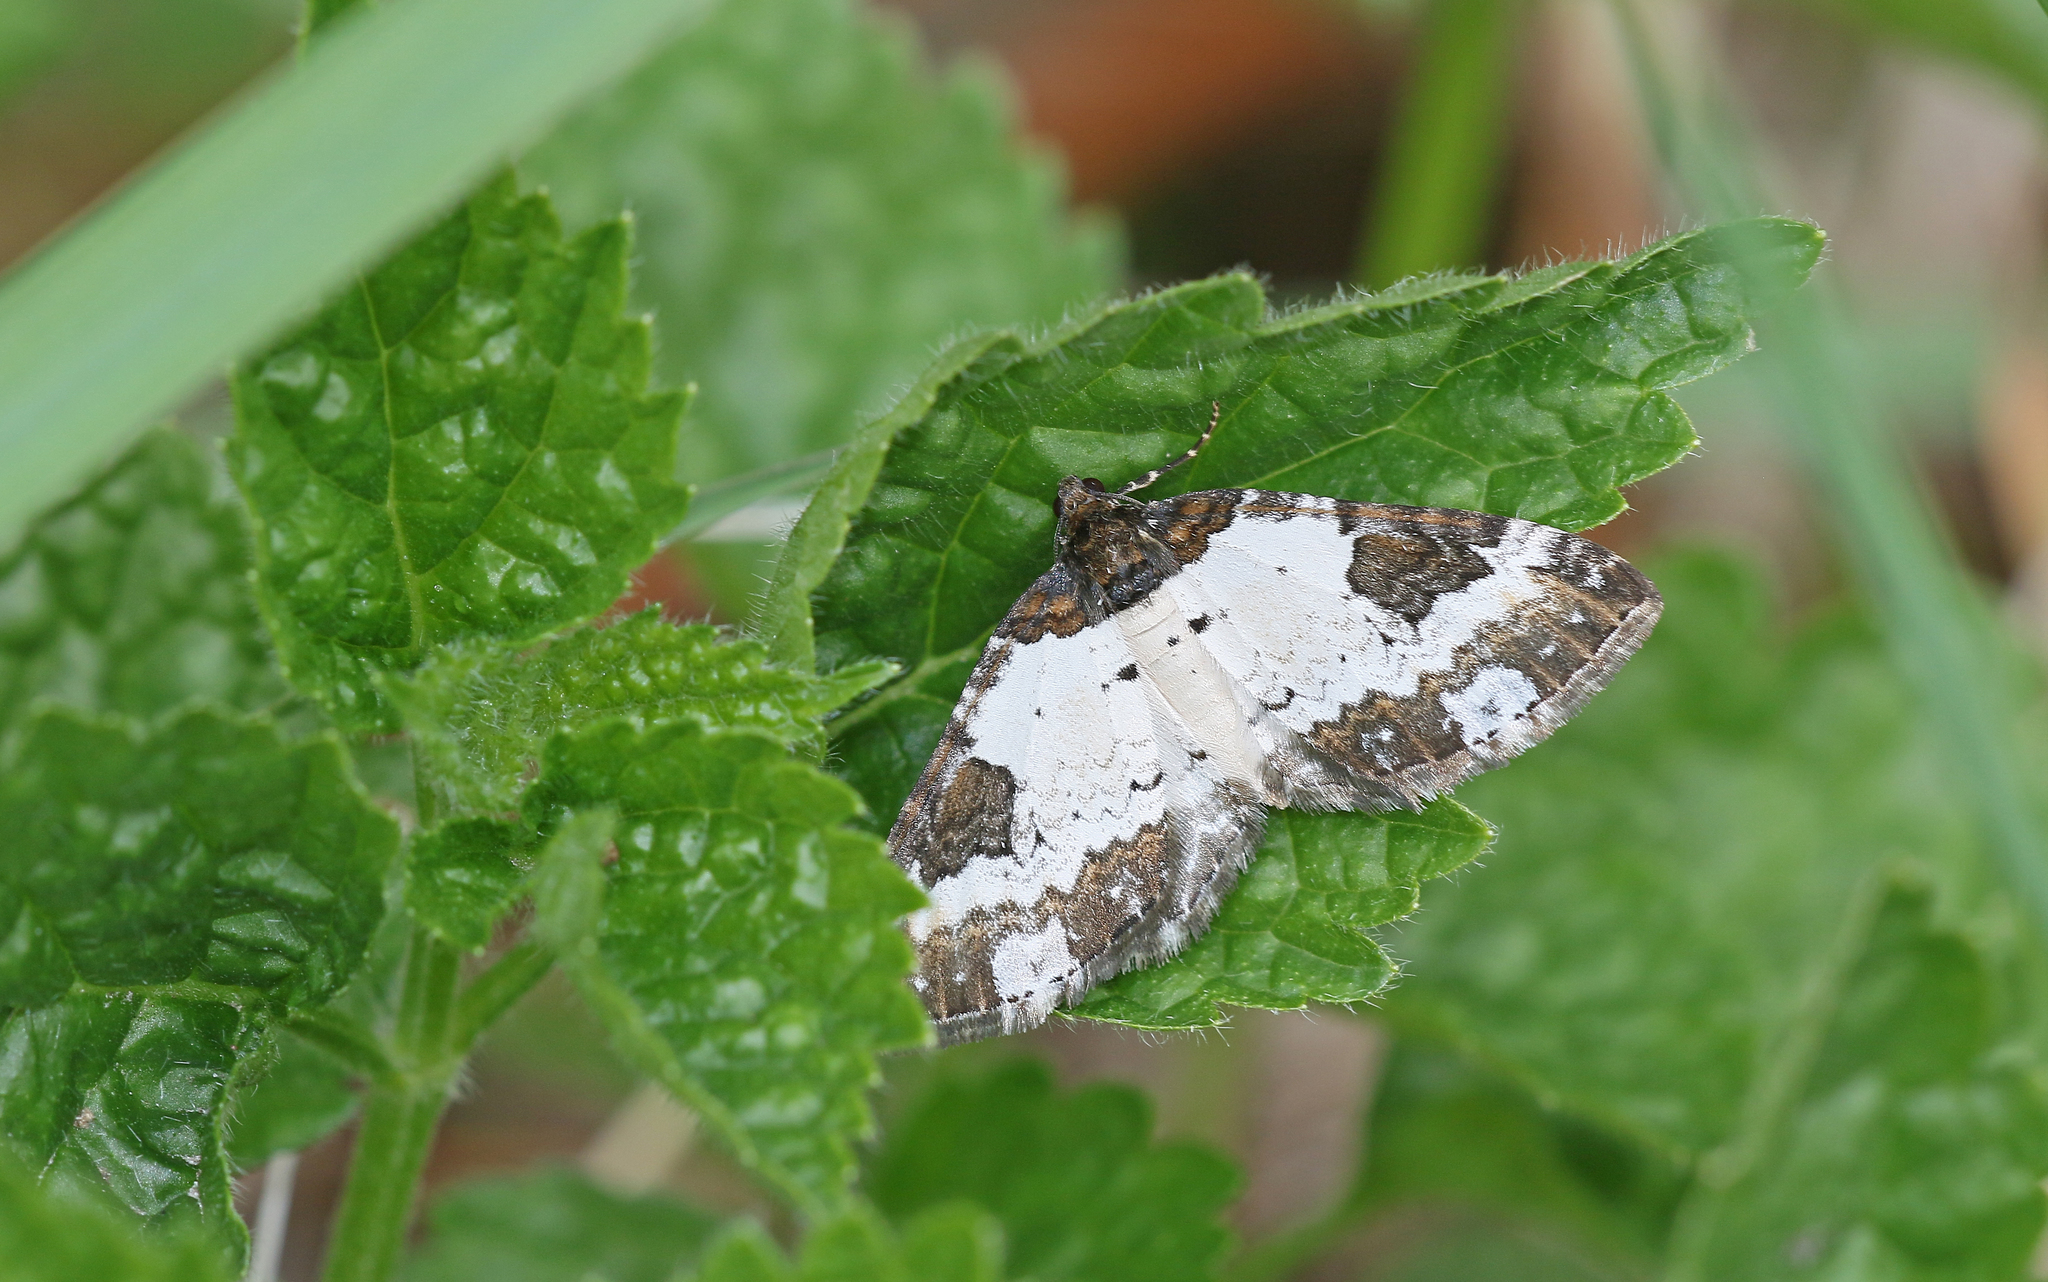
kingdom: Animalia
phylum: Arthropoda
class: Insecta
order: Lepidoptera
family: Geometridae
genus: Melanthia
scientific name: Melanthia procellata
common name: Pretty chalk carpet
